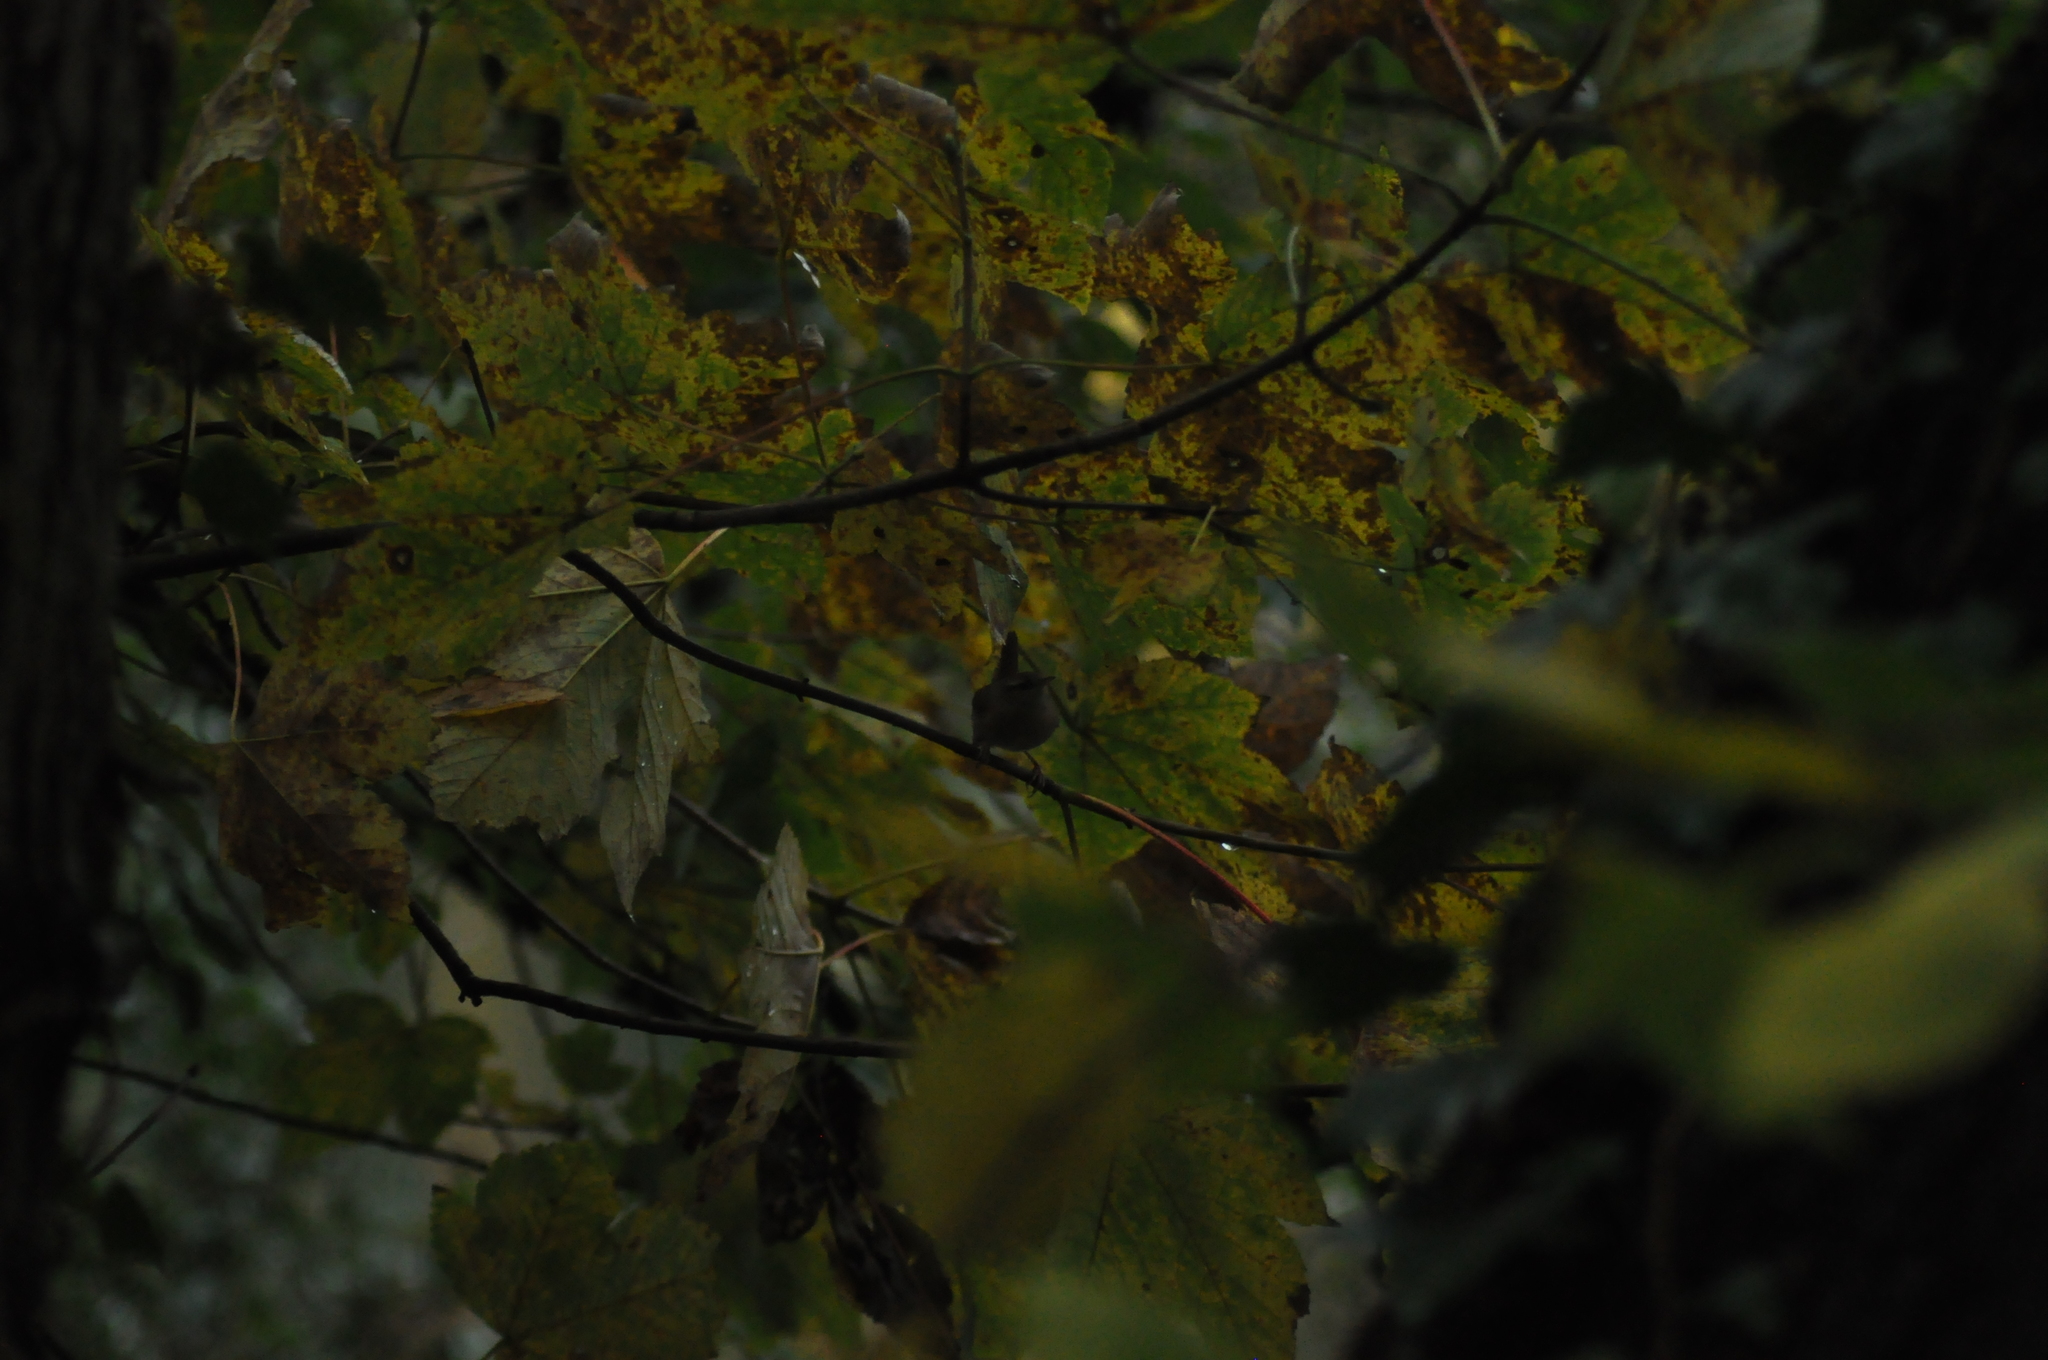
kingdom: Animalia
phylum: Chordata
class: Aves
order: Passeriformes
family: Troglodytidae
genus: Troglodytes
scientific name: Troglodytes troglodytes
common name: Eurasian wren
